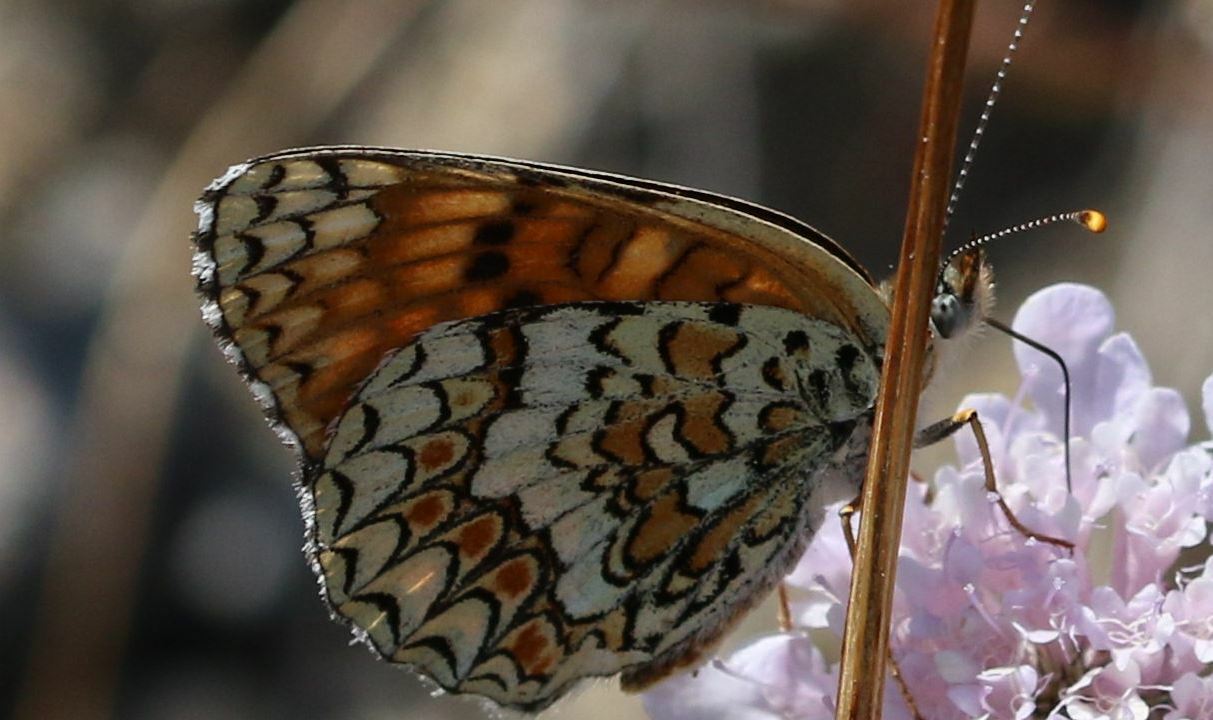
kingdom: Animalia
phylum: Arthropoda
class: Insecta
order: Lepidoptera
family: Nymphalidae
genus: Melitaea
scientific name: Melitaea phoebe
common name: Knapweed fritillary
